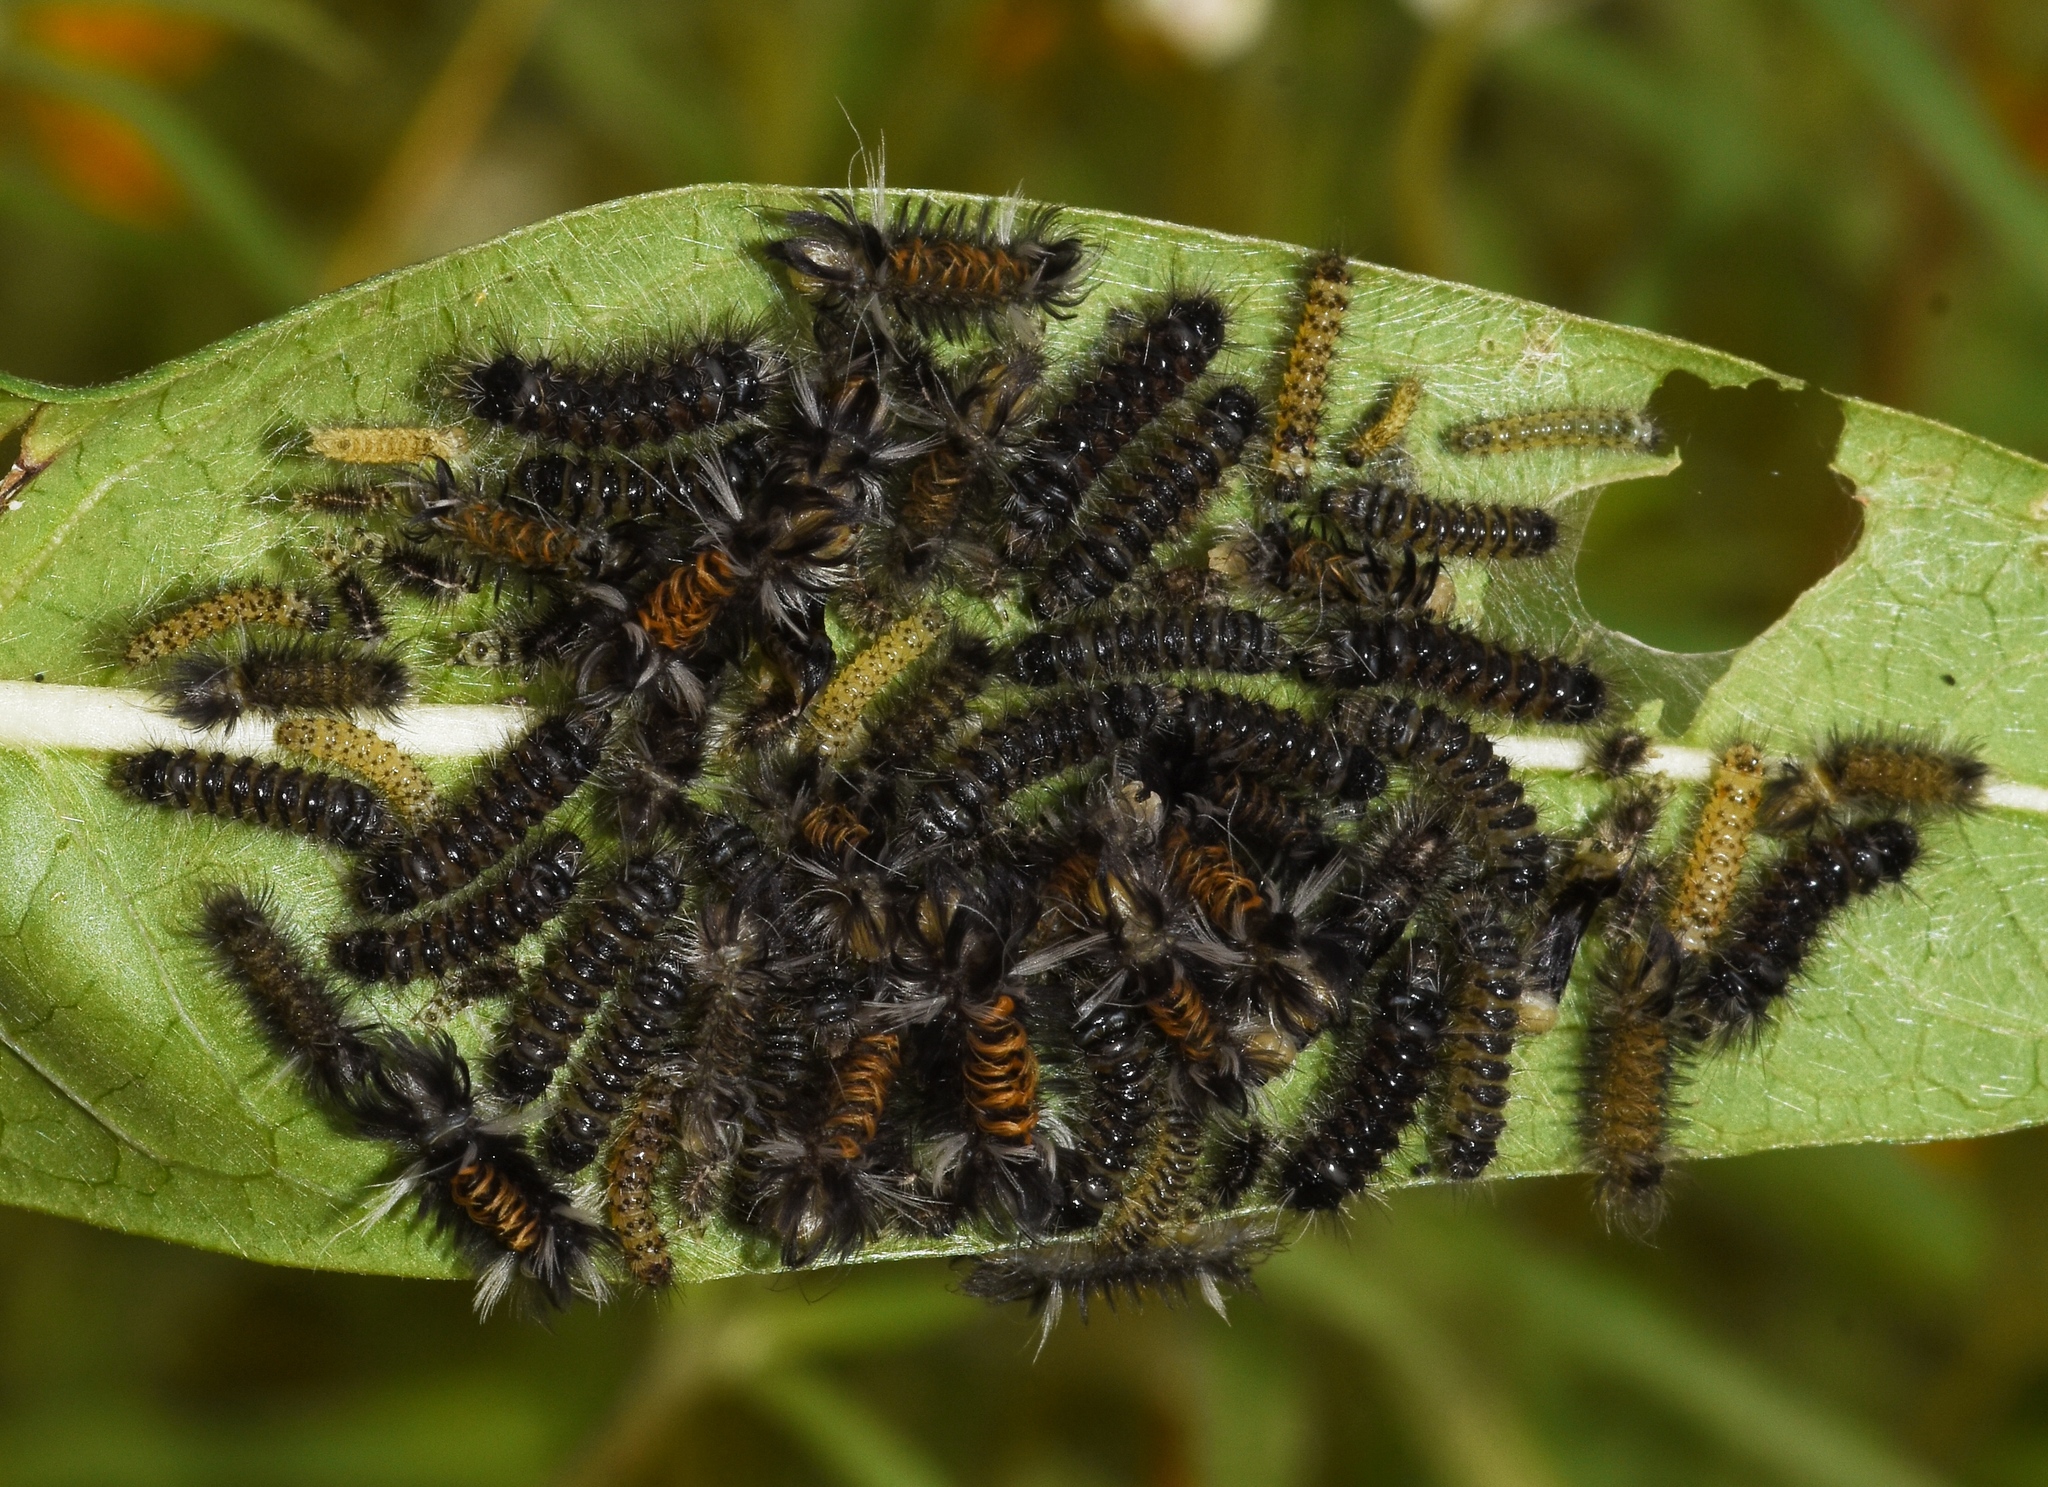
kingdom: Animalia
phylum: Arthropoda
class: Insecta
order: Lepidoptera
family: Erebidae
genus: Euchaetes
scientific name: Euchaetes egle
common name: Milkweed tussock moth
